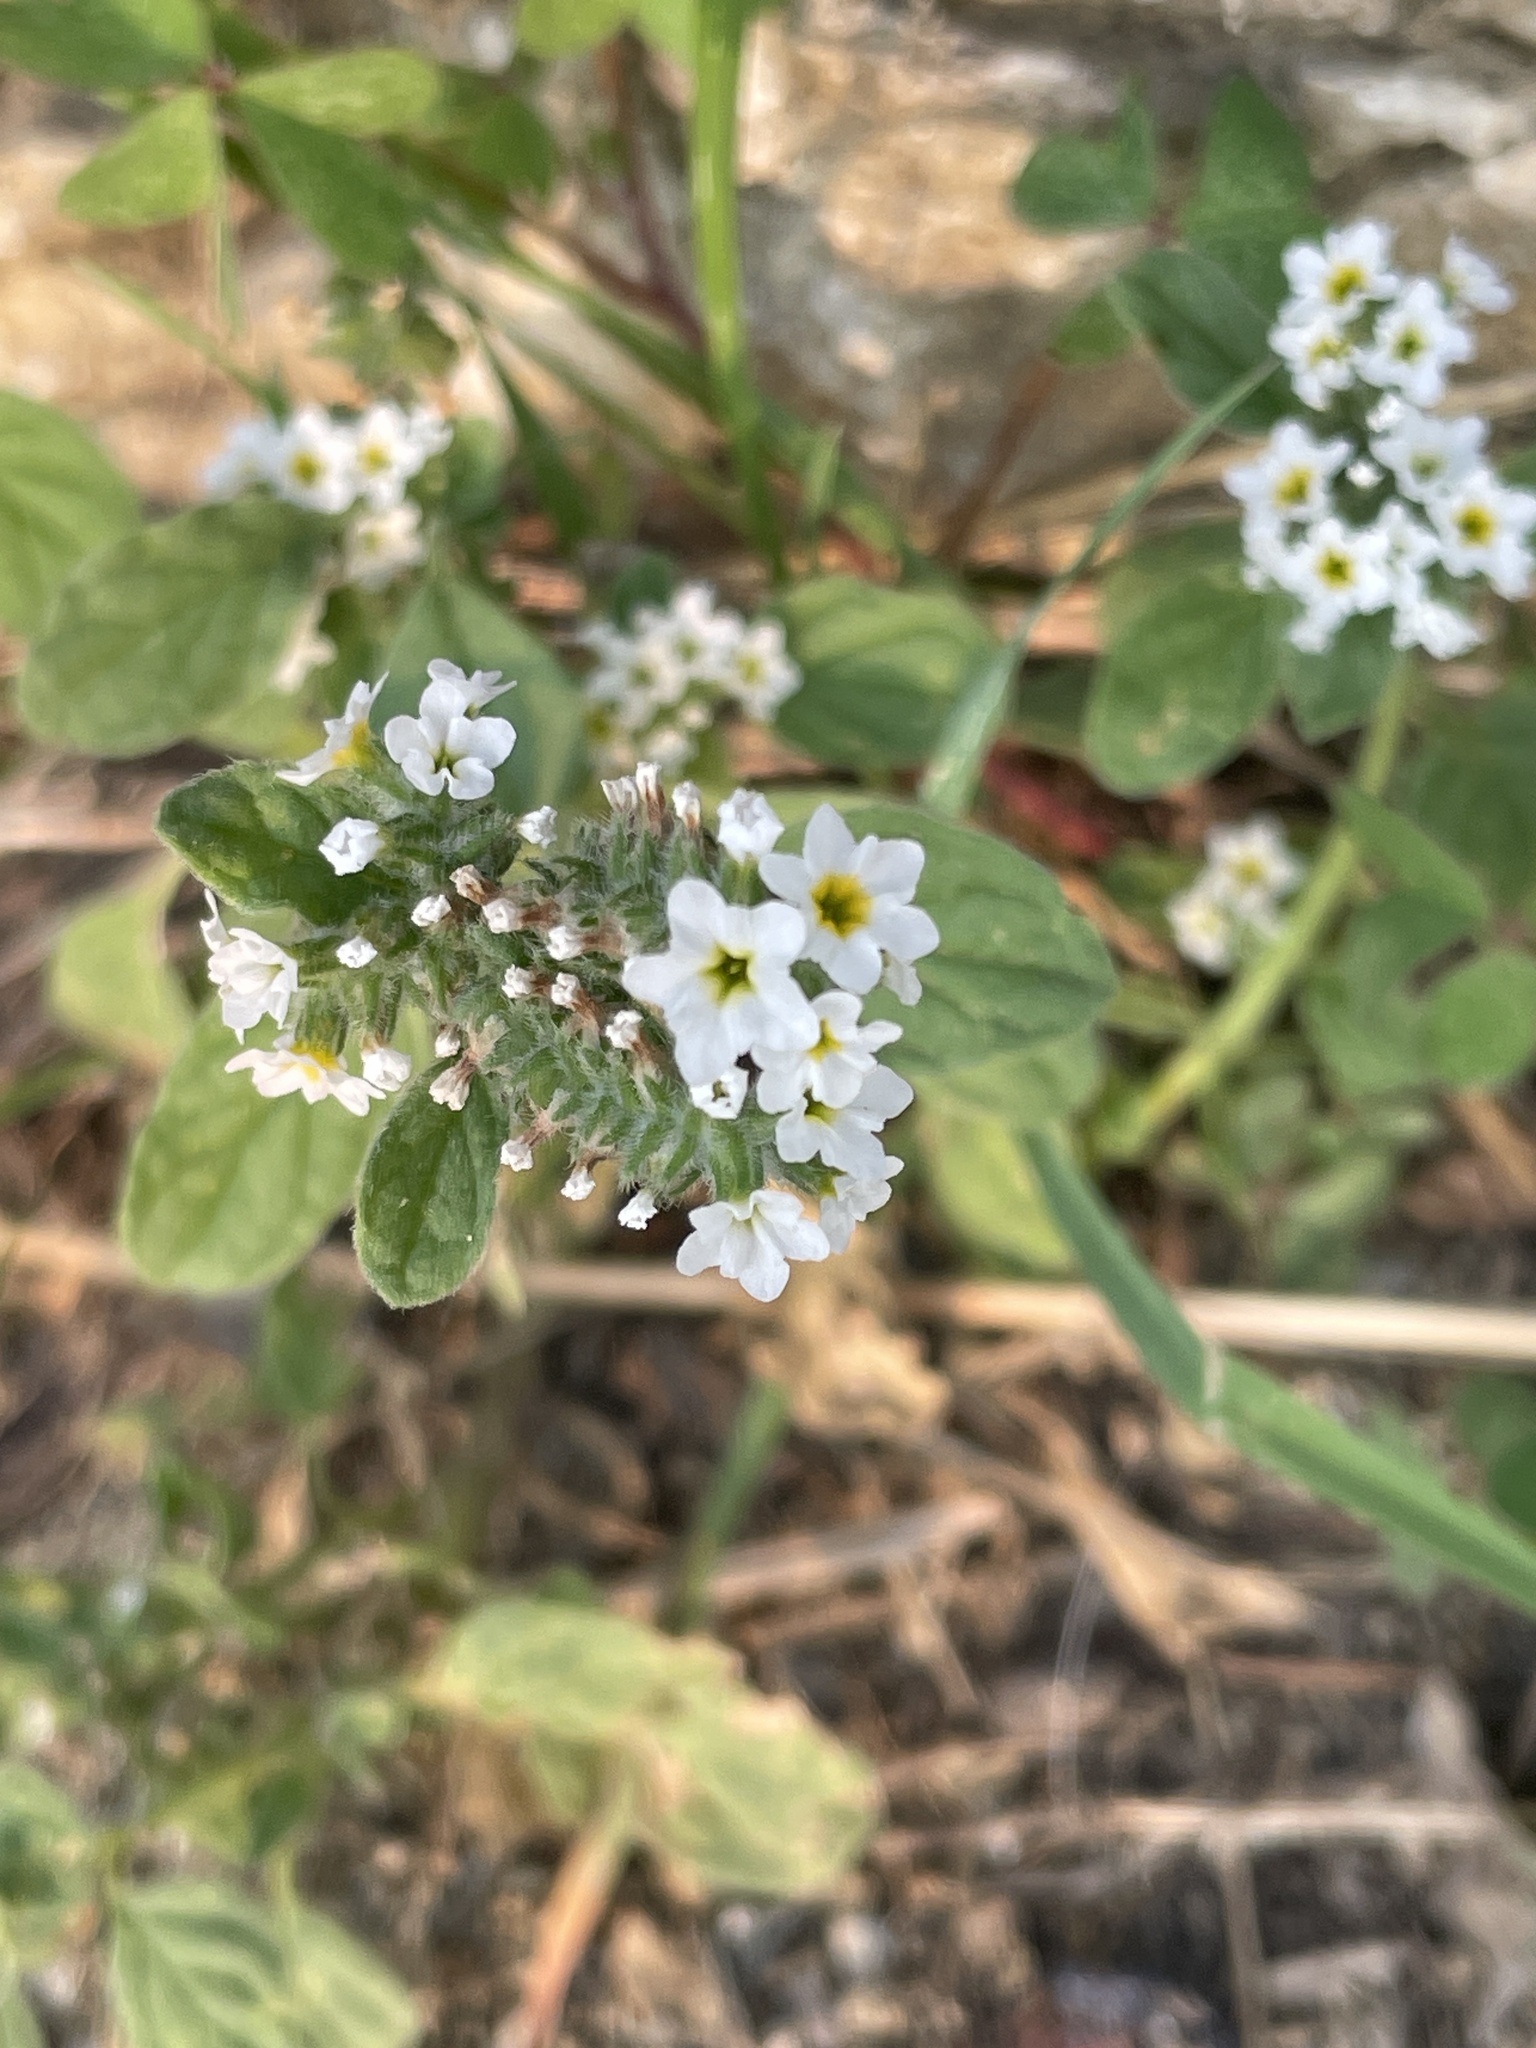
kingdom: Plantae
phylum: Tracheophyta
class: Magnoliopsida
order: Boraginales
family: Heliotropiaceae
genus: Heliotropium
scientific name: Heliotropium europaeum
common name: European heliotrope
